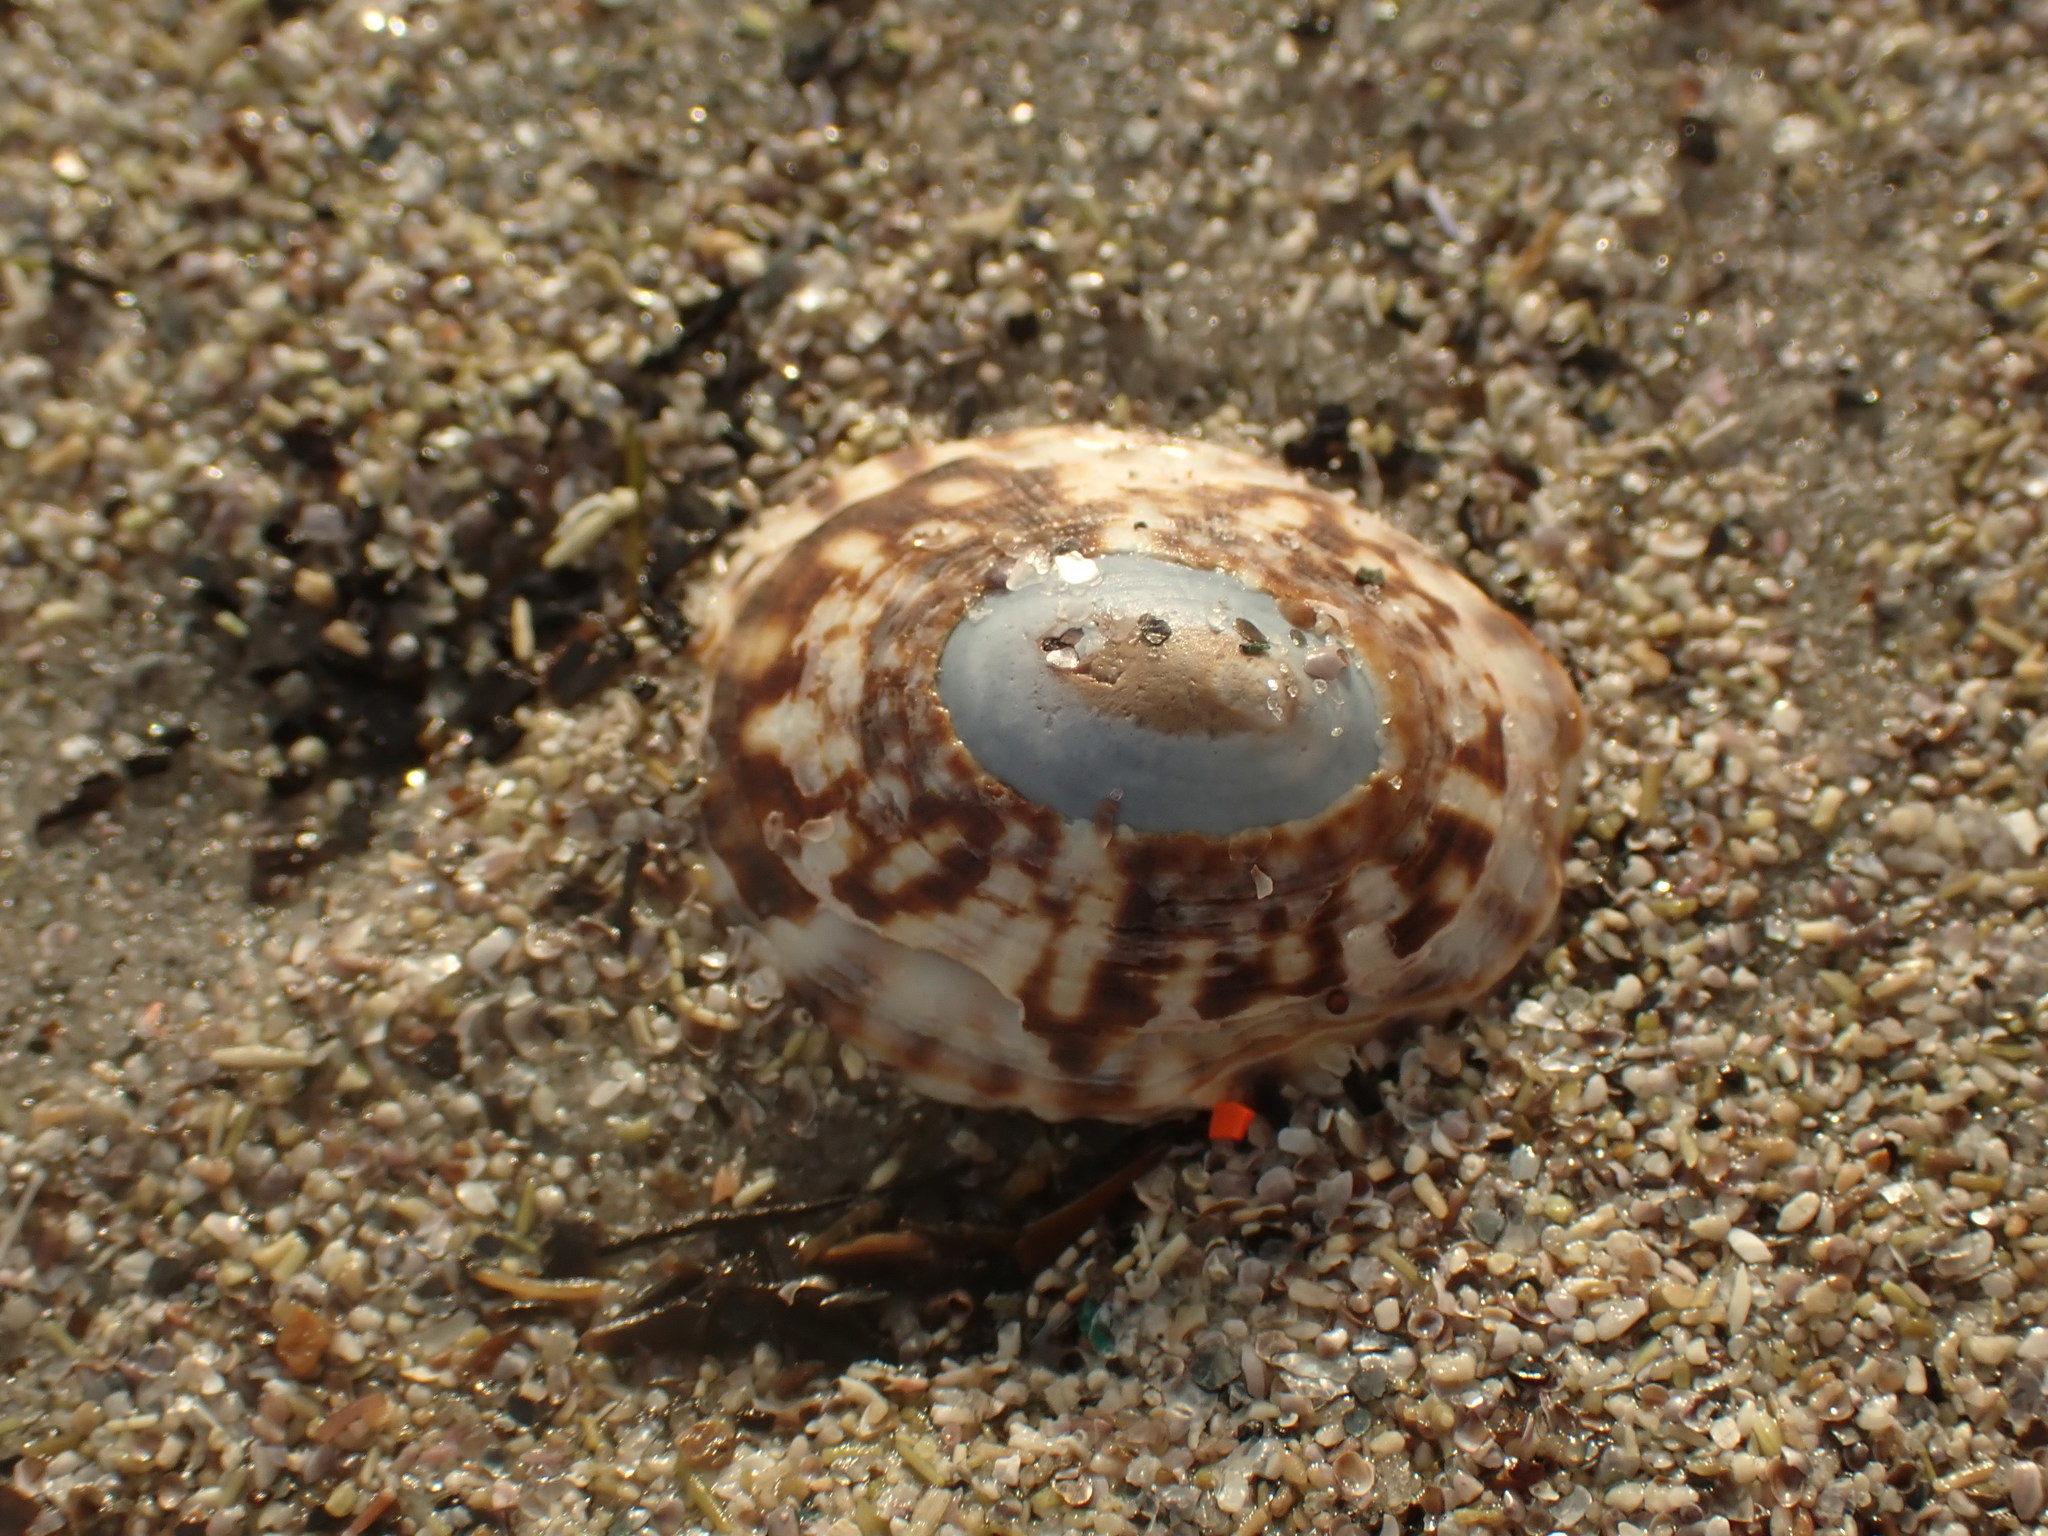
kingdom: Animalia
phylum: Mollusca
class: Gastropoda
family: Lottiidae
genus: Testudinalia
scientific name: Testudinalia testudinalis
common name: Common tortoiseshell limpet
